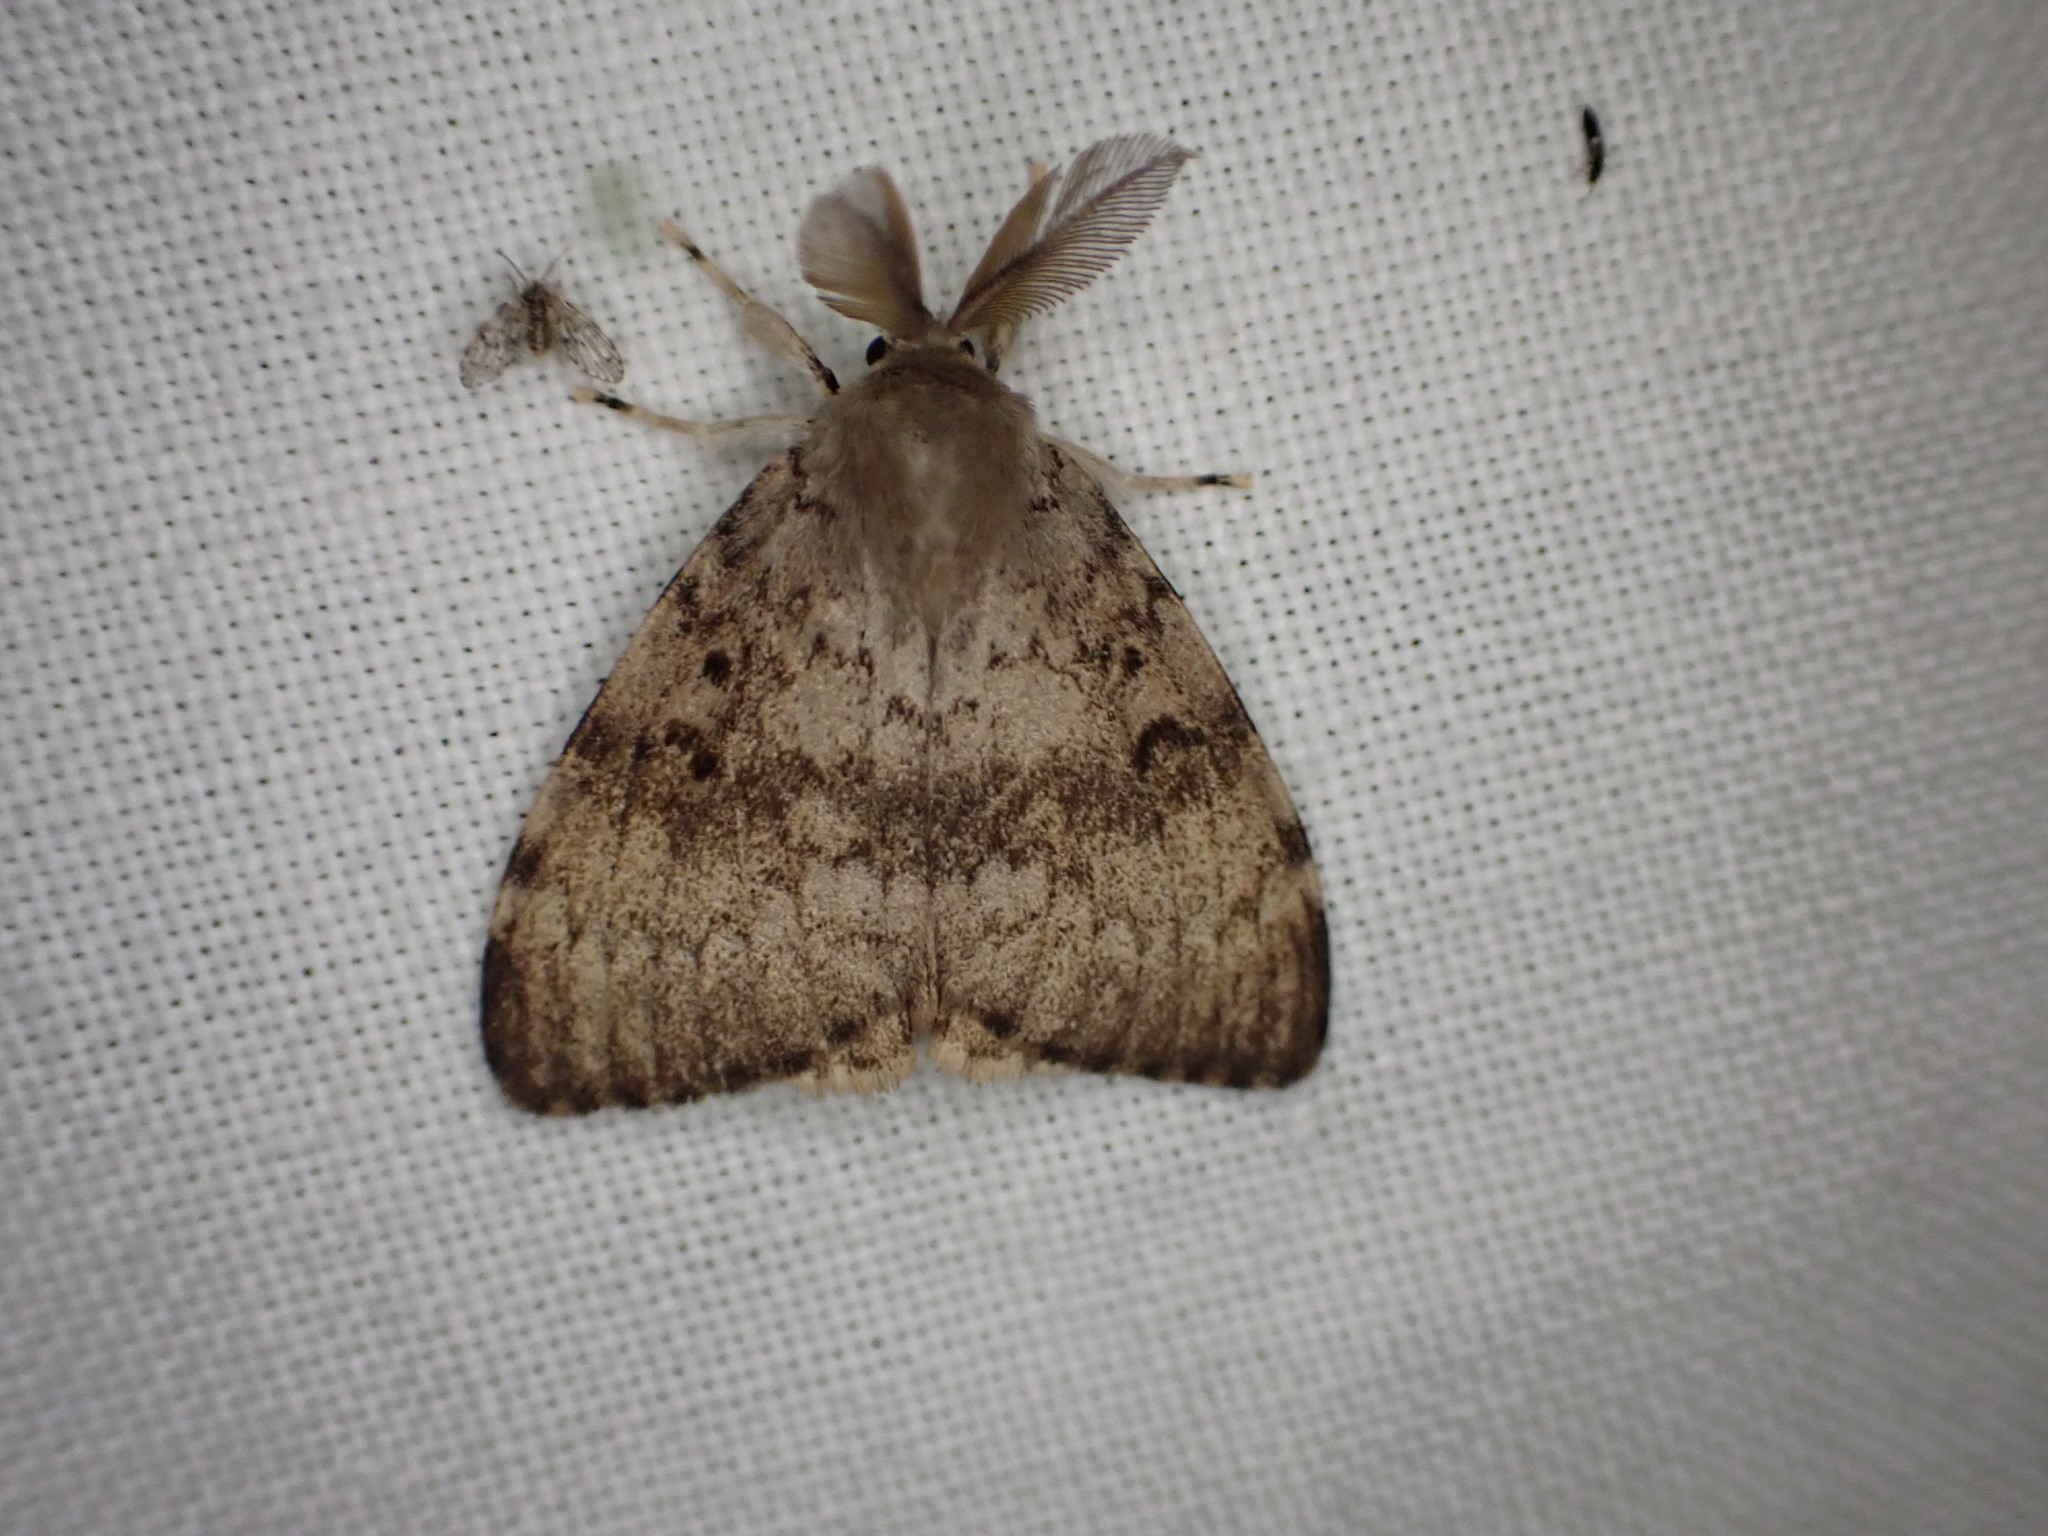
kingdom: Animalia
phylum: Arthropoda
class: Insecta
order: Lepidoptera
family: Erebidae
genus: Lymantria
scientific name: Lymantria dispar
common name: Gypsy moth
